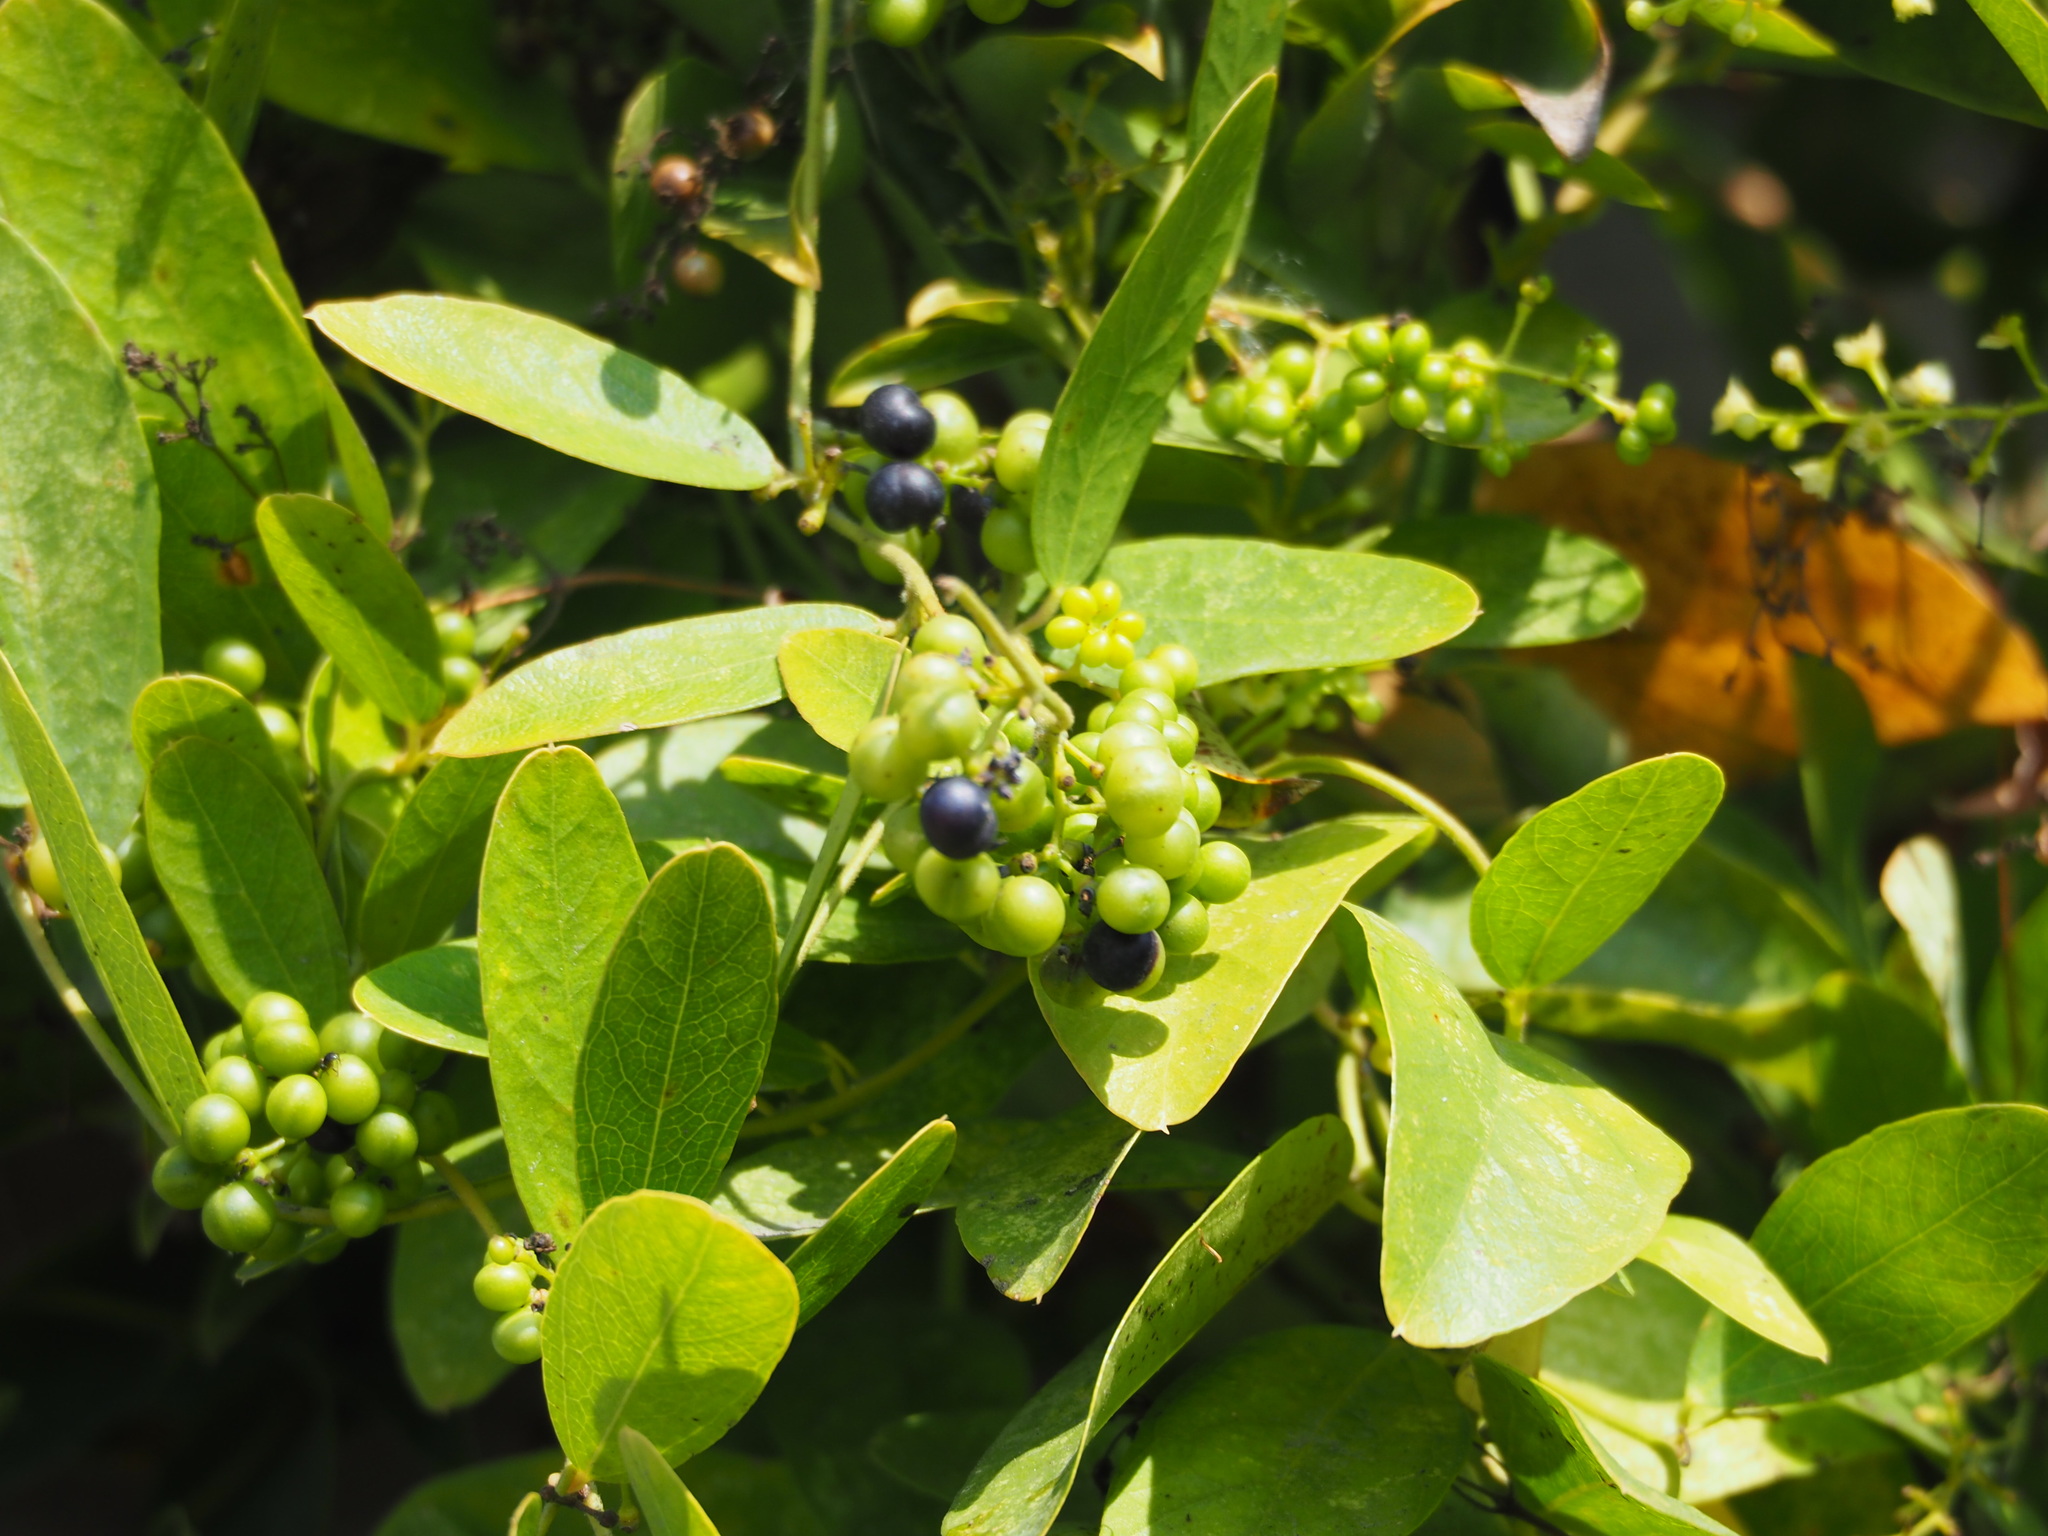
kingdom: Plantae
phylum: Tracheophyta
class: Magnoliopsida
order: Ranunculales
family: Menispermaceae
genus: Cocculus
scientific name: Cocculus orbiculatus
